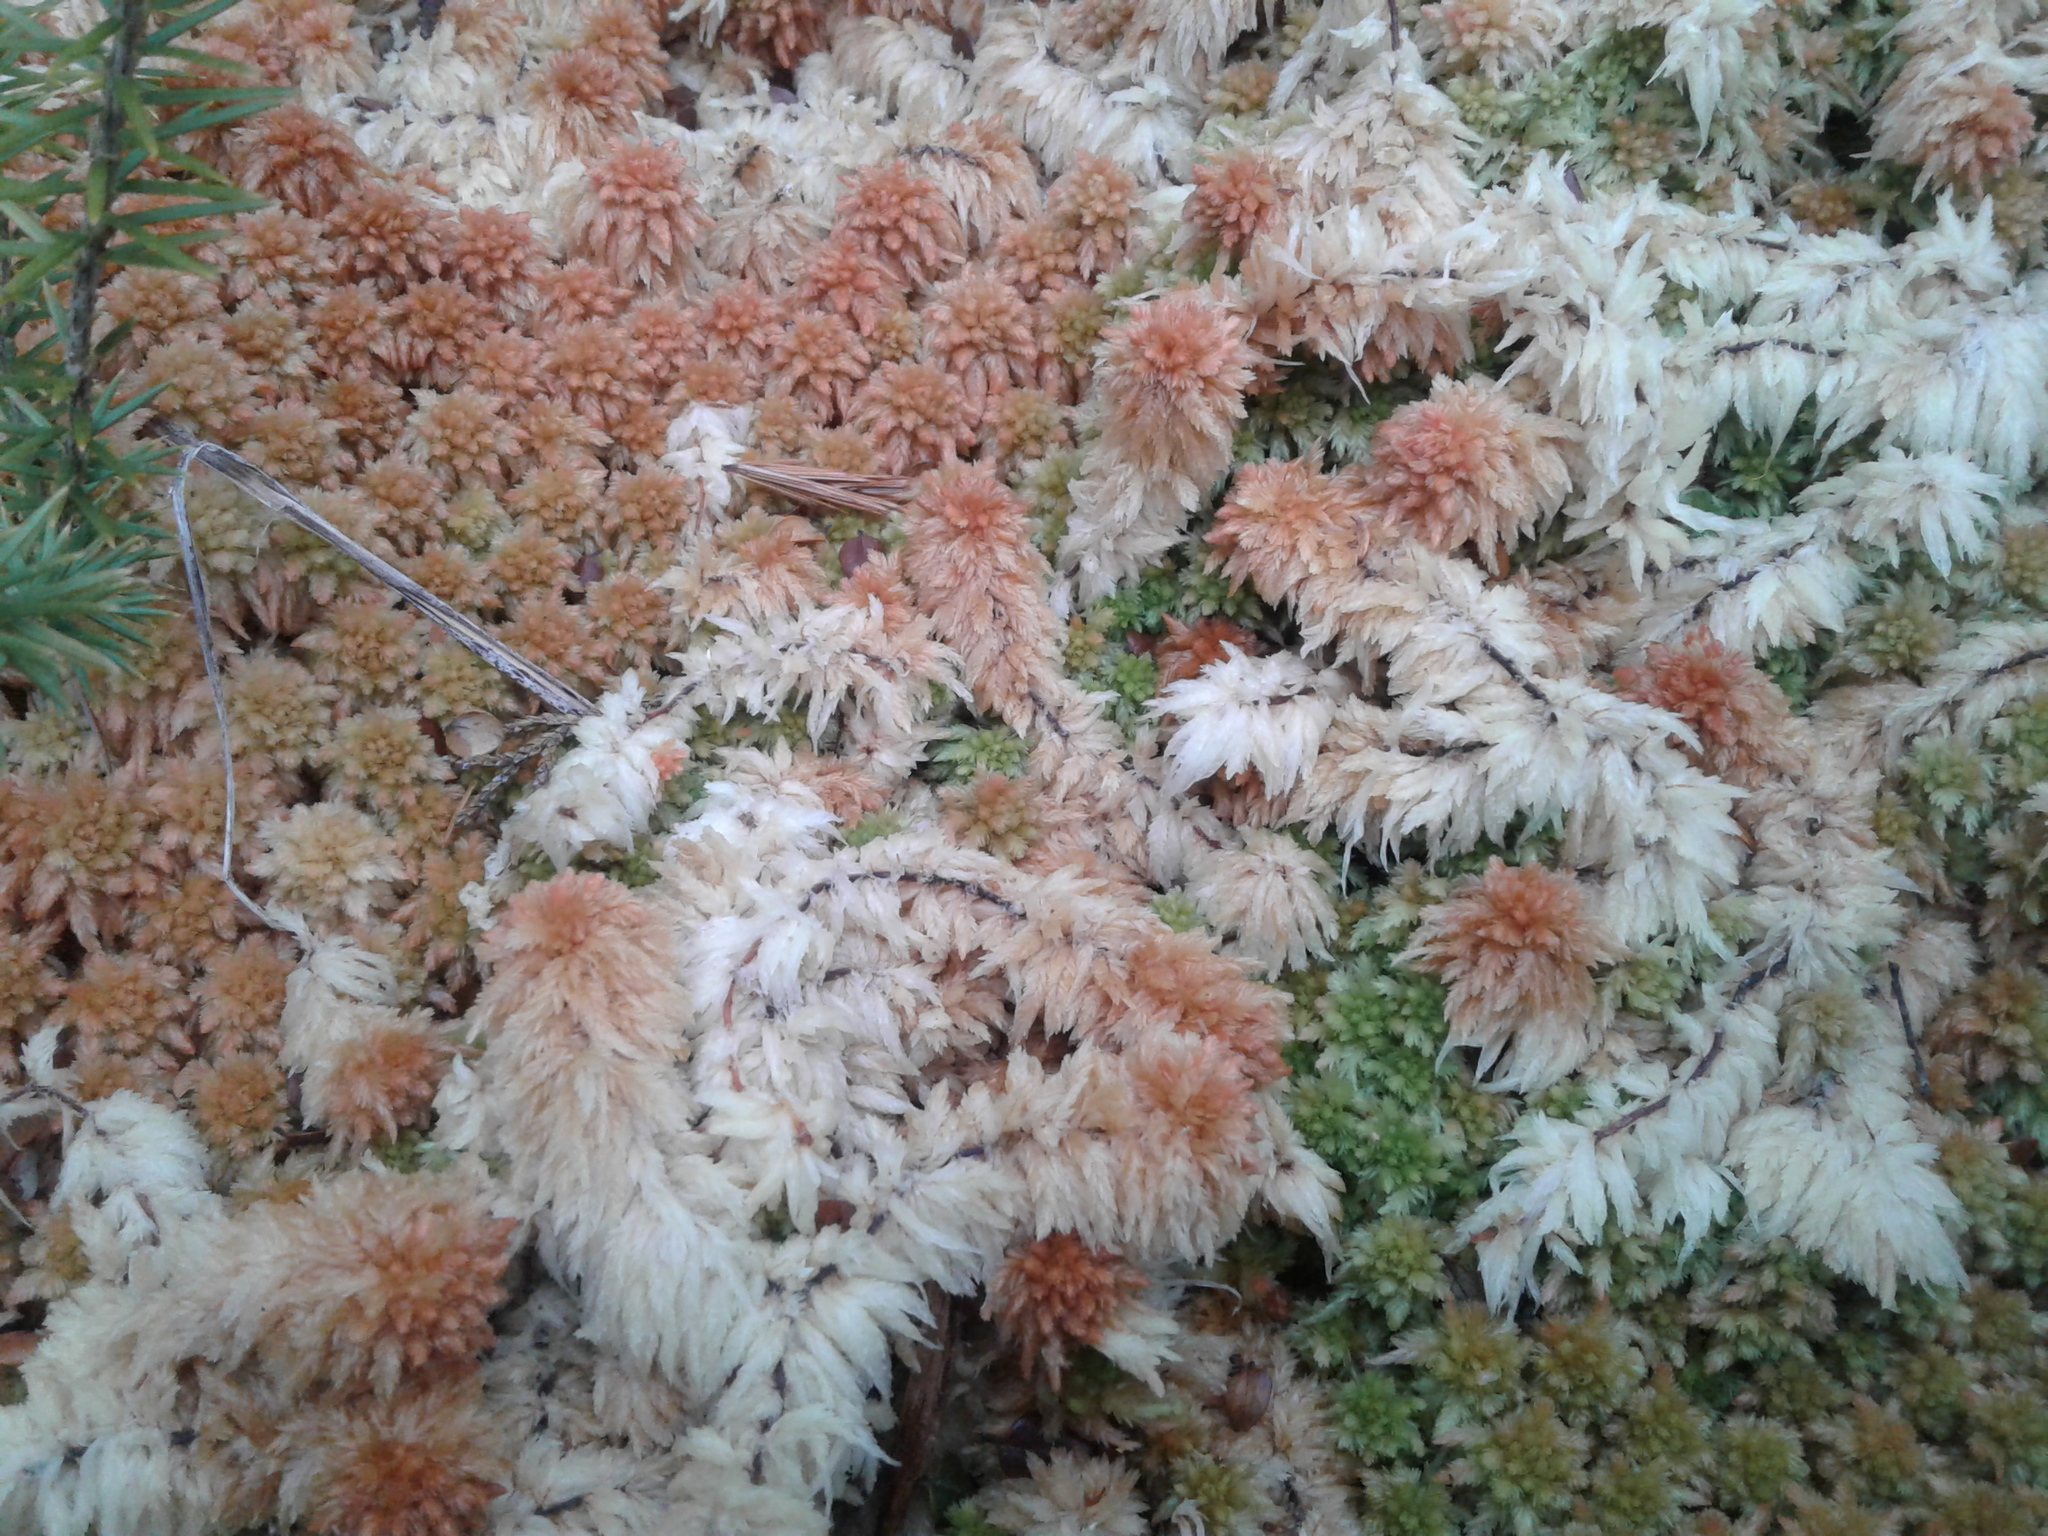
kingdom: Plantae
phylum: Bryophyta
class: Sphagnopsida
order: Sphagnales
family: Sphagnaceae
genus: Sphagnum
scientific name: Sphagnum
